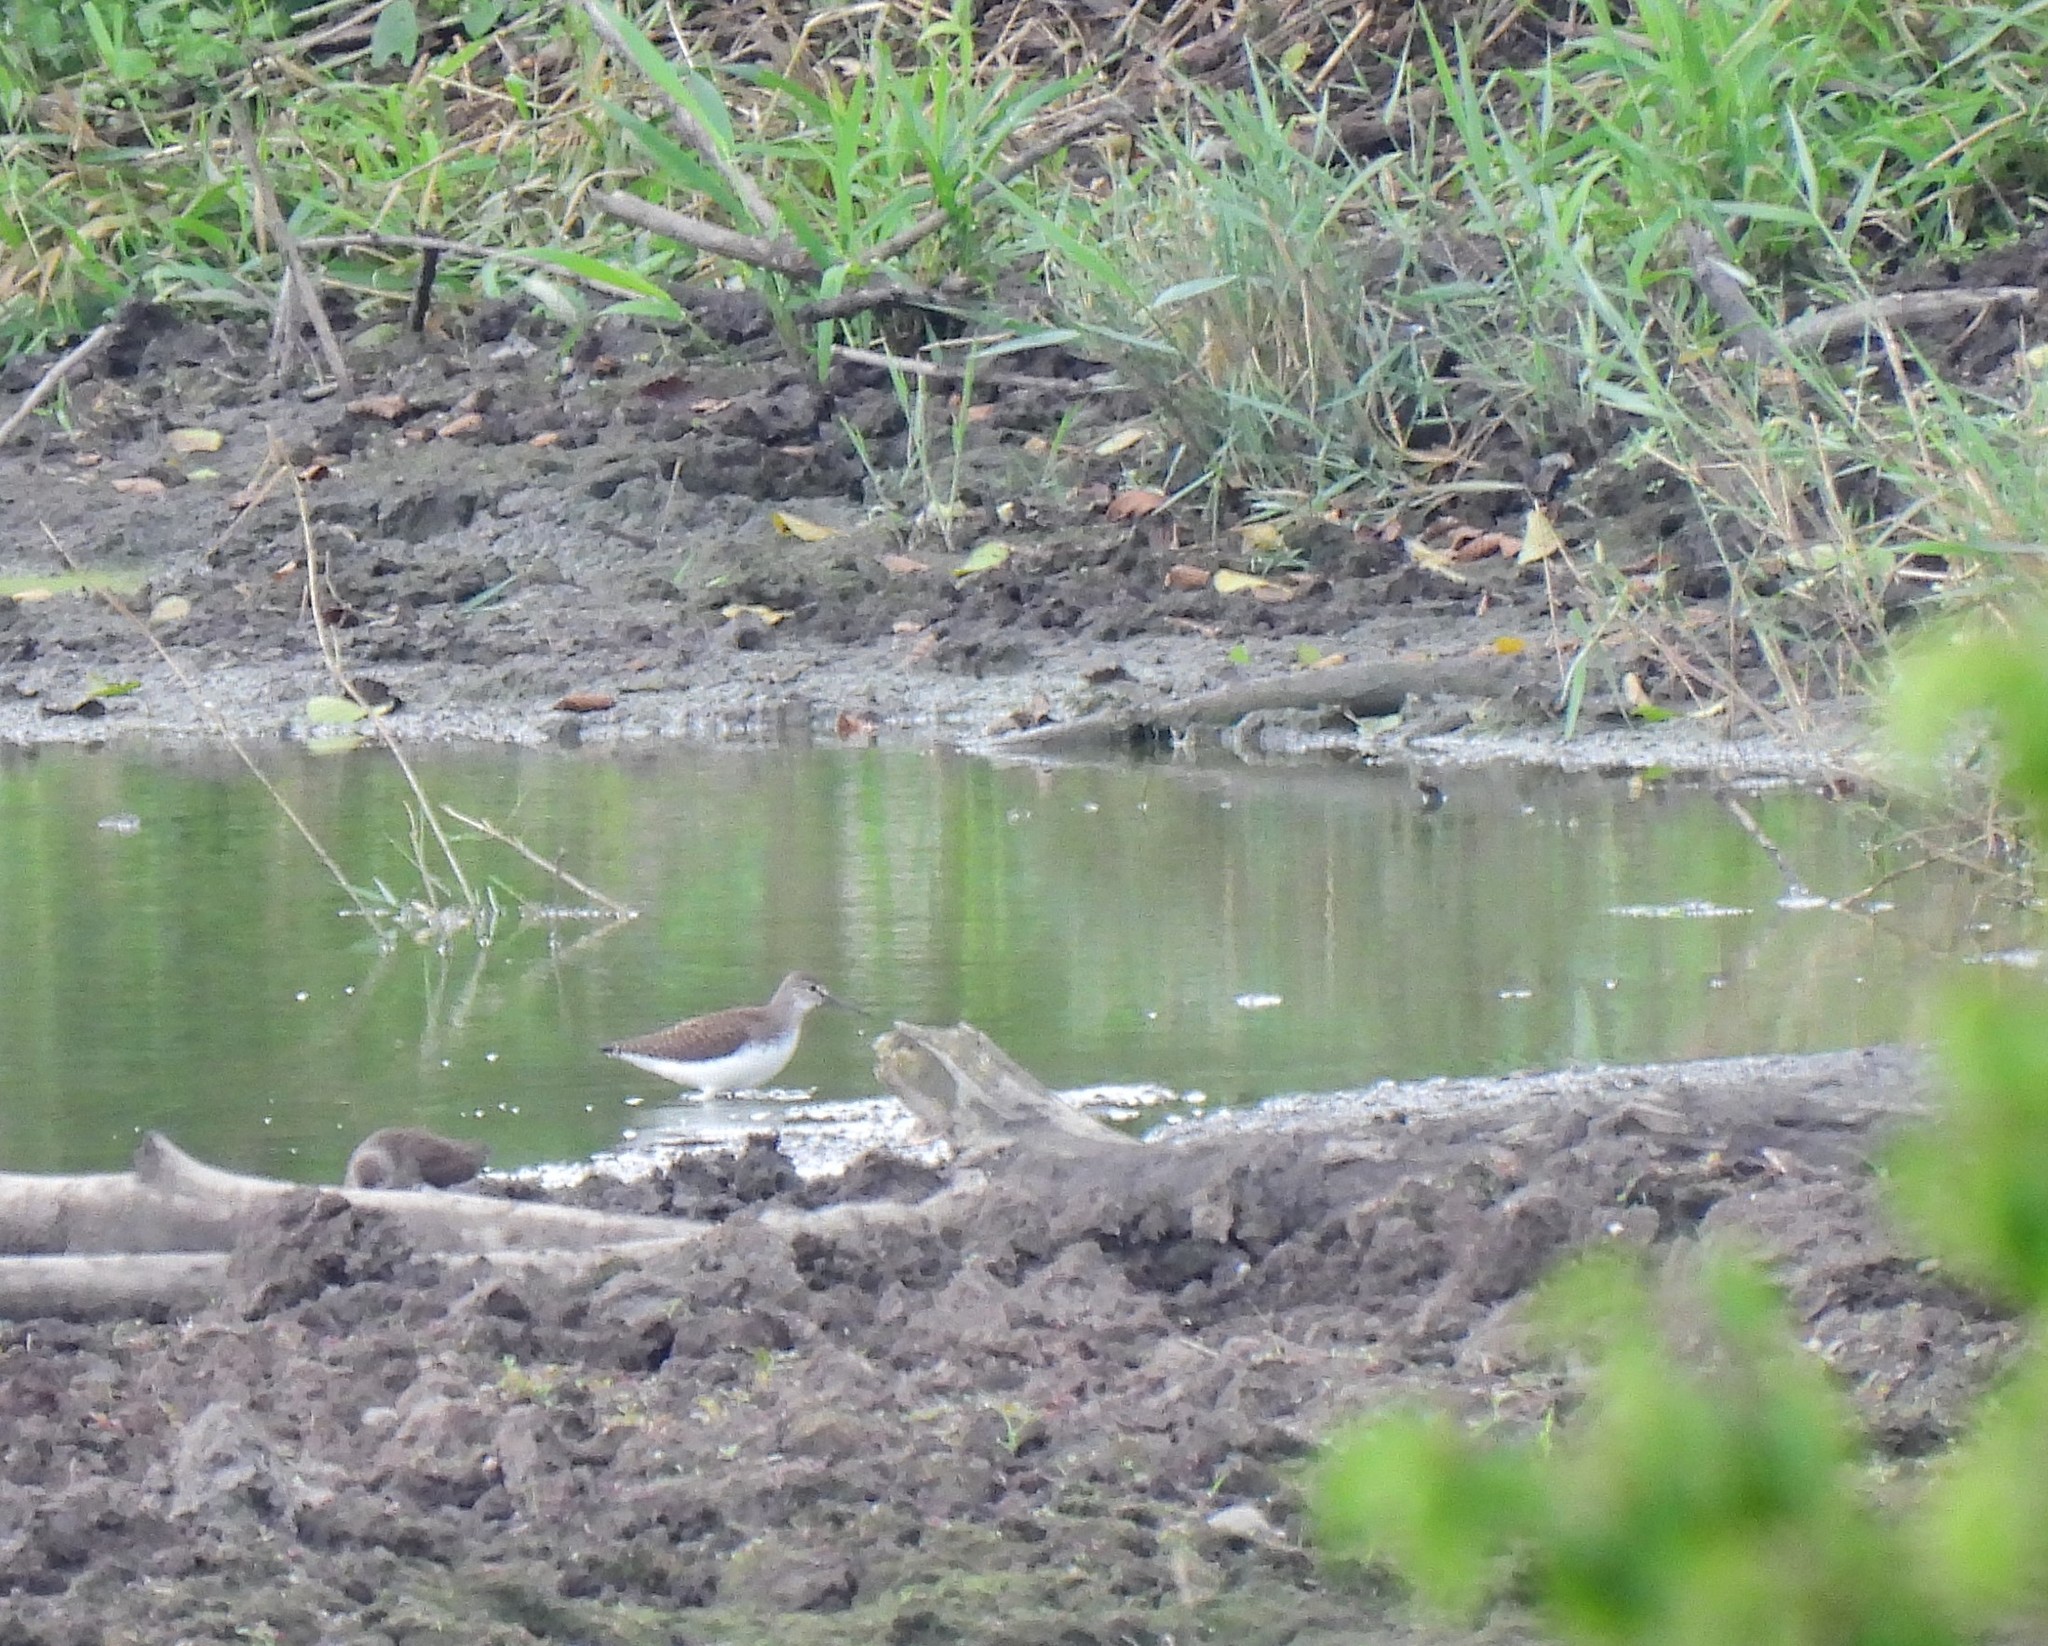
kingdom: Animalia
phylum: Chordata
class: Aves
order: Charadriiformes
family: Scolopacidae
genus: Tringa
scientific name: Tringa ochropus
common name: Green sandpiper
